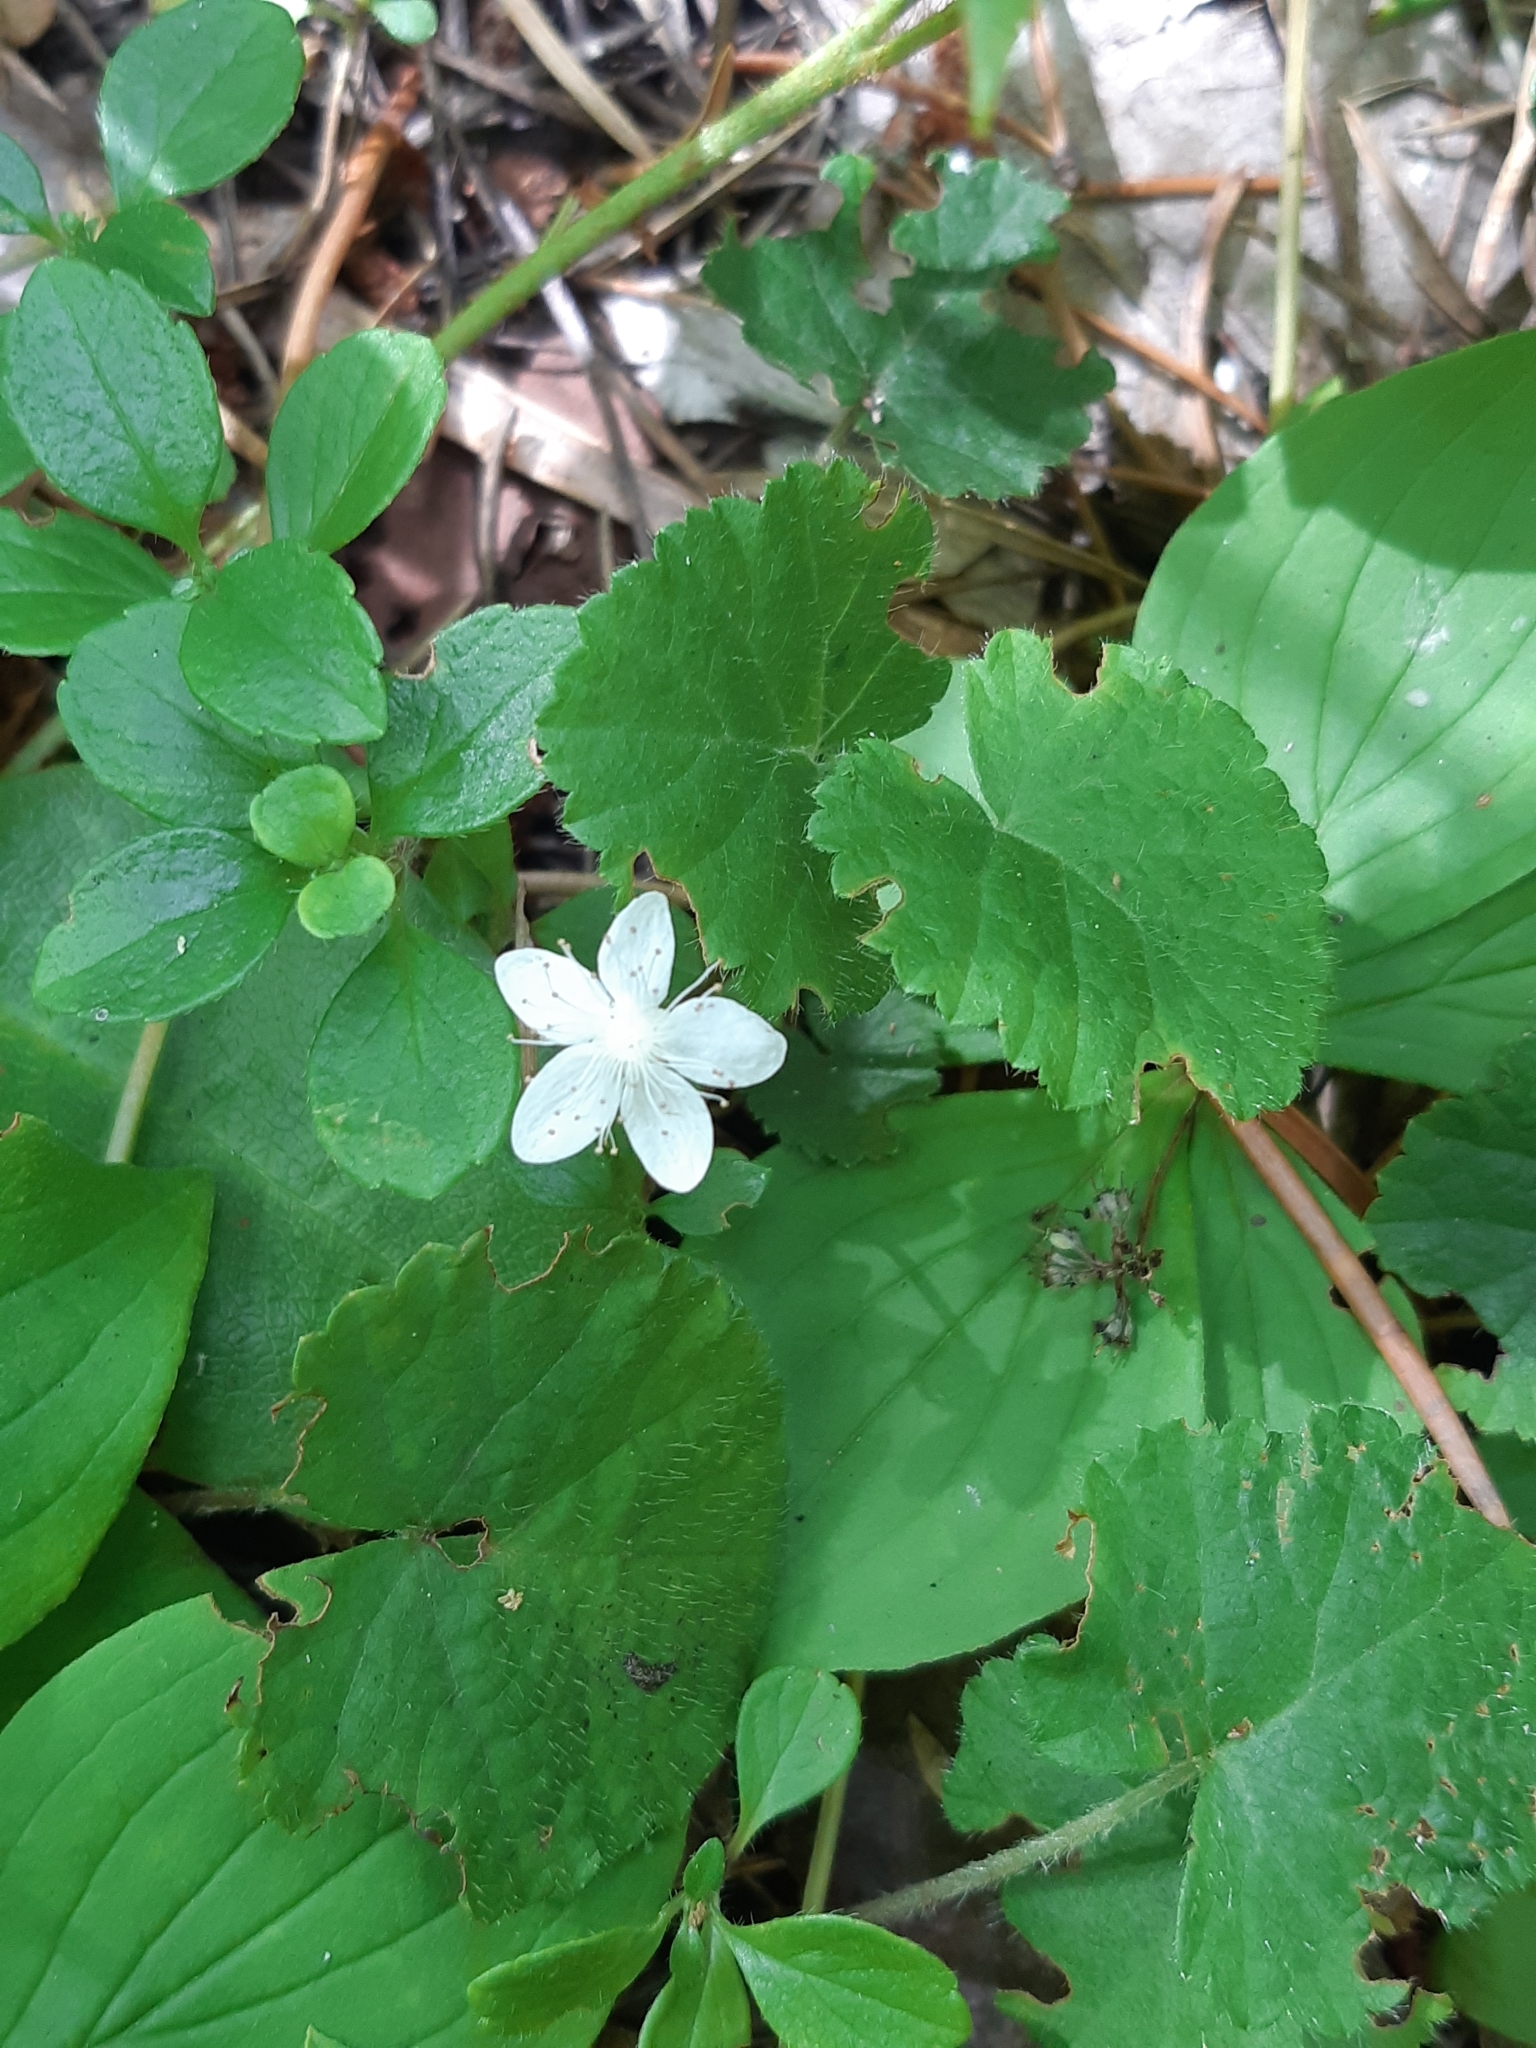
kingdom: Plantae
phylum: Tracheophyta
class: Magnoliopsida
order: Rosales
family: Rosaceae
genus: Dalibarda
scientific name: Dalibarda repens
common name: Dewdrop
